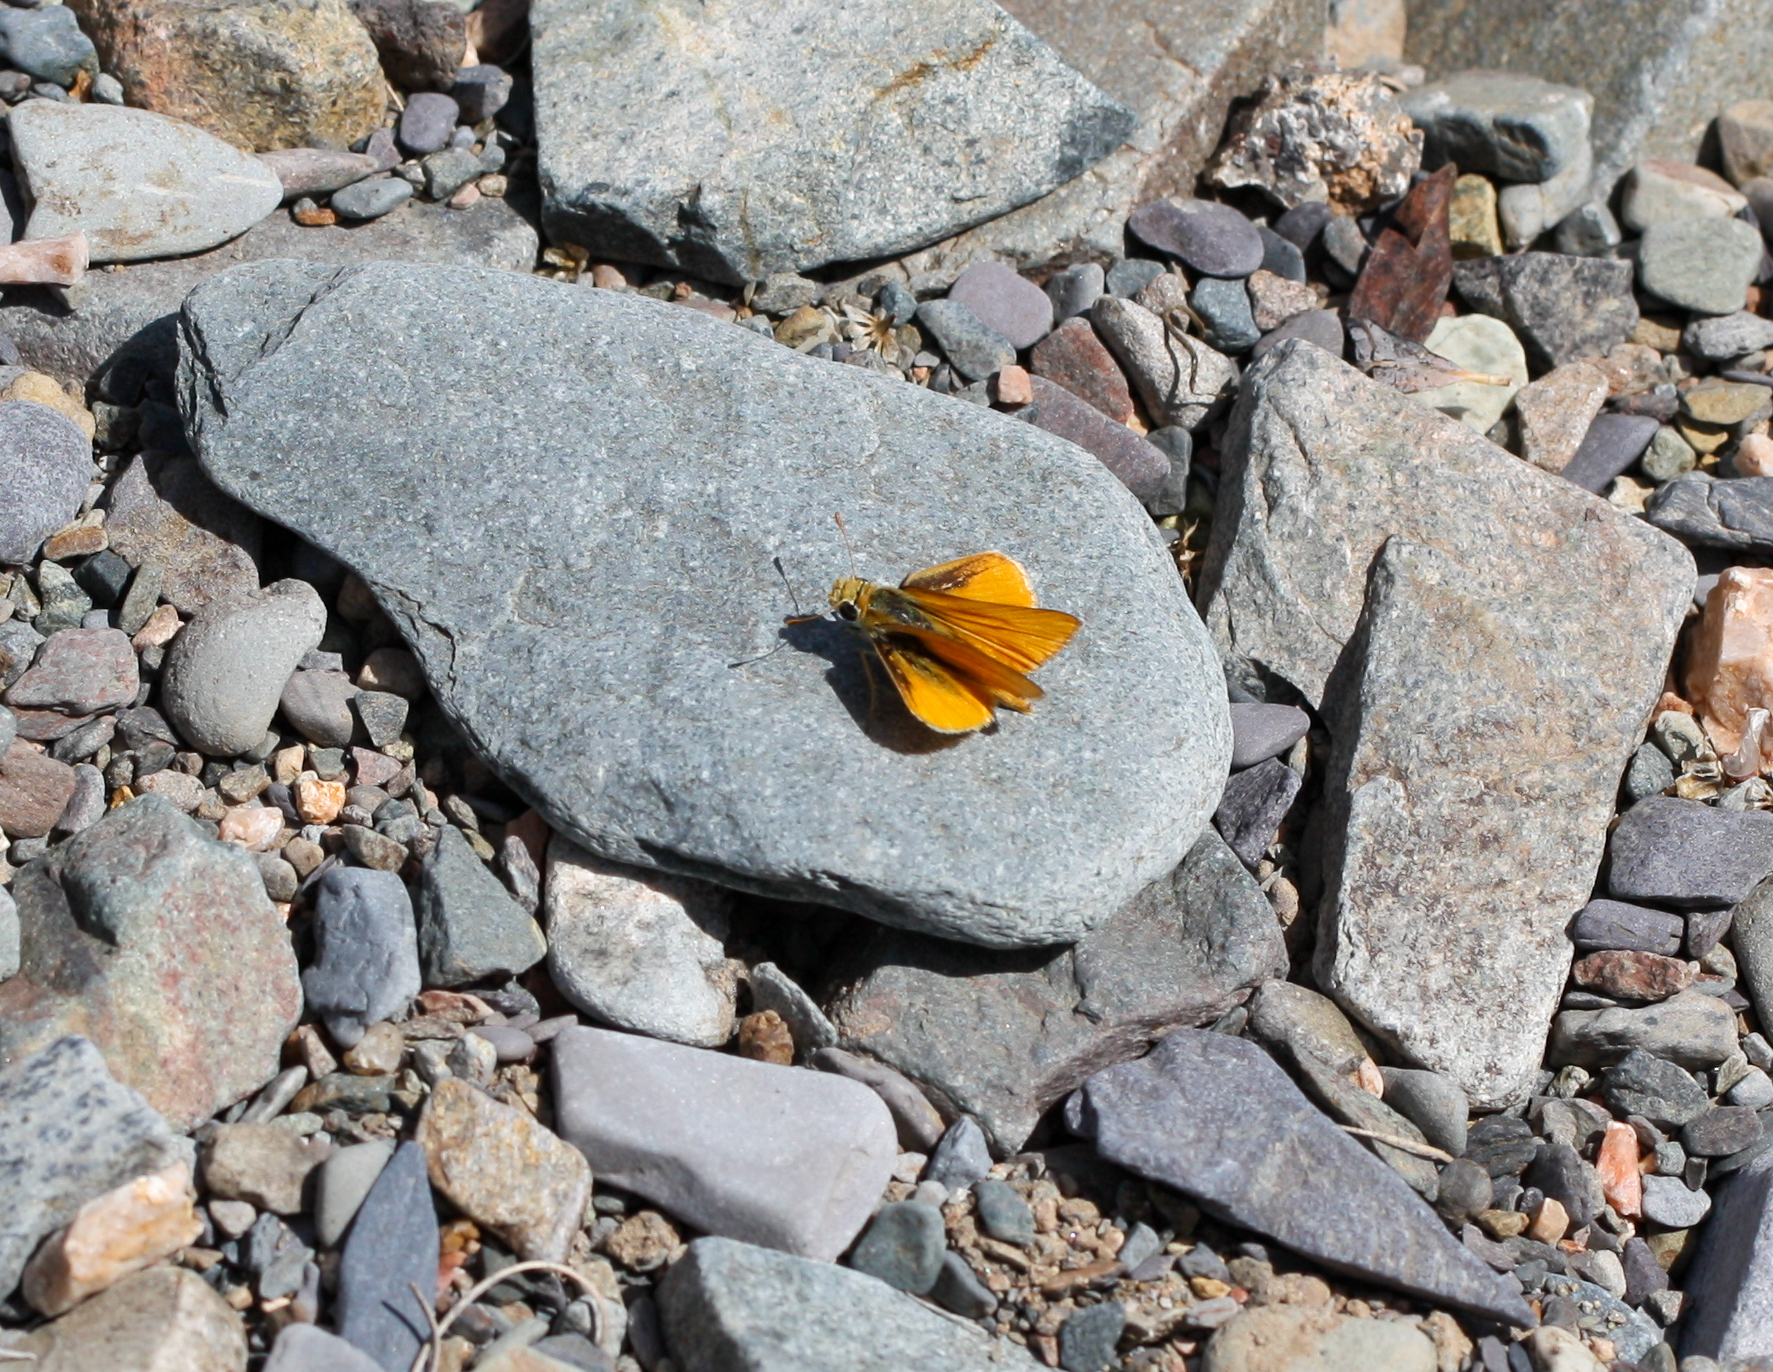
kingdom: Animalia
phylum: Arthropoda
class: Insecta
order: Lepidoptera
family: Hesperiidae
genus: Copaeodes
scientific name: Copaeodes aurantiaca
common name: Orange skipperling
